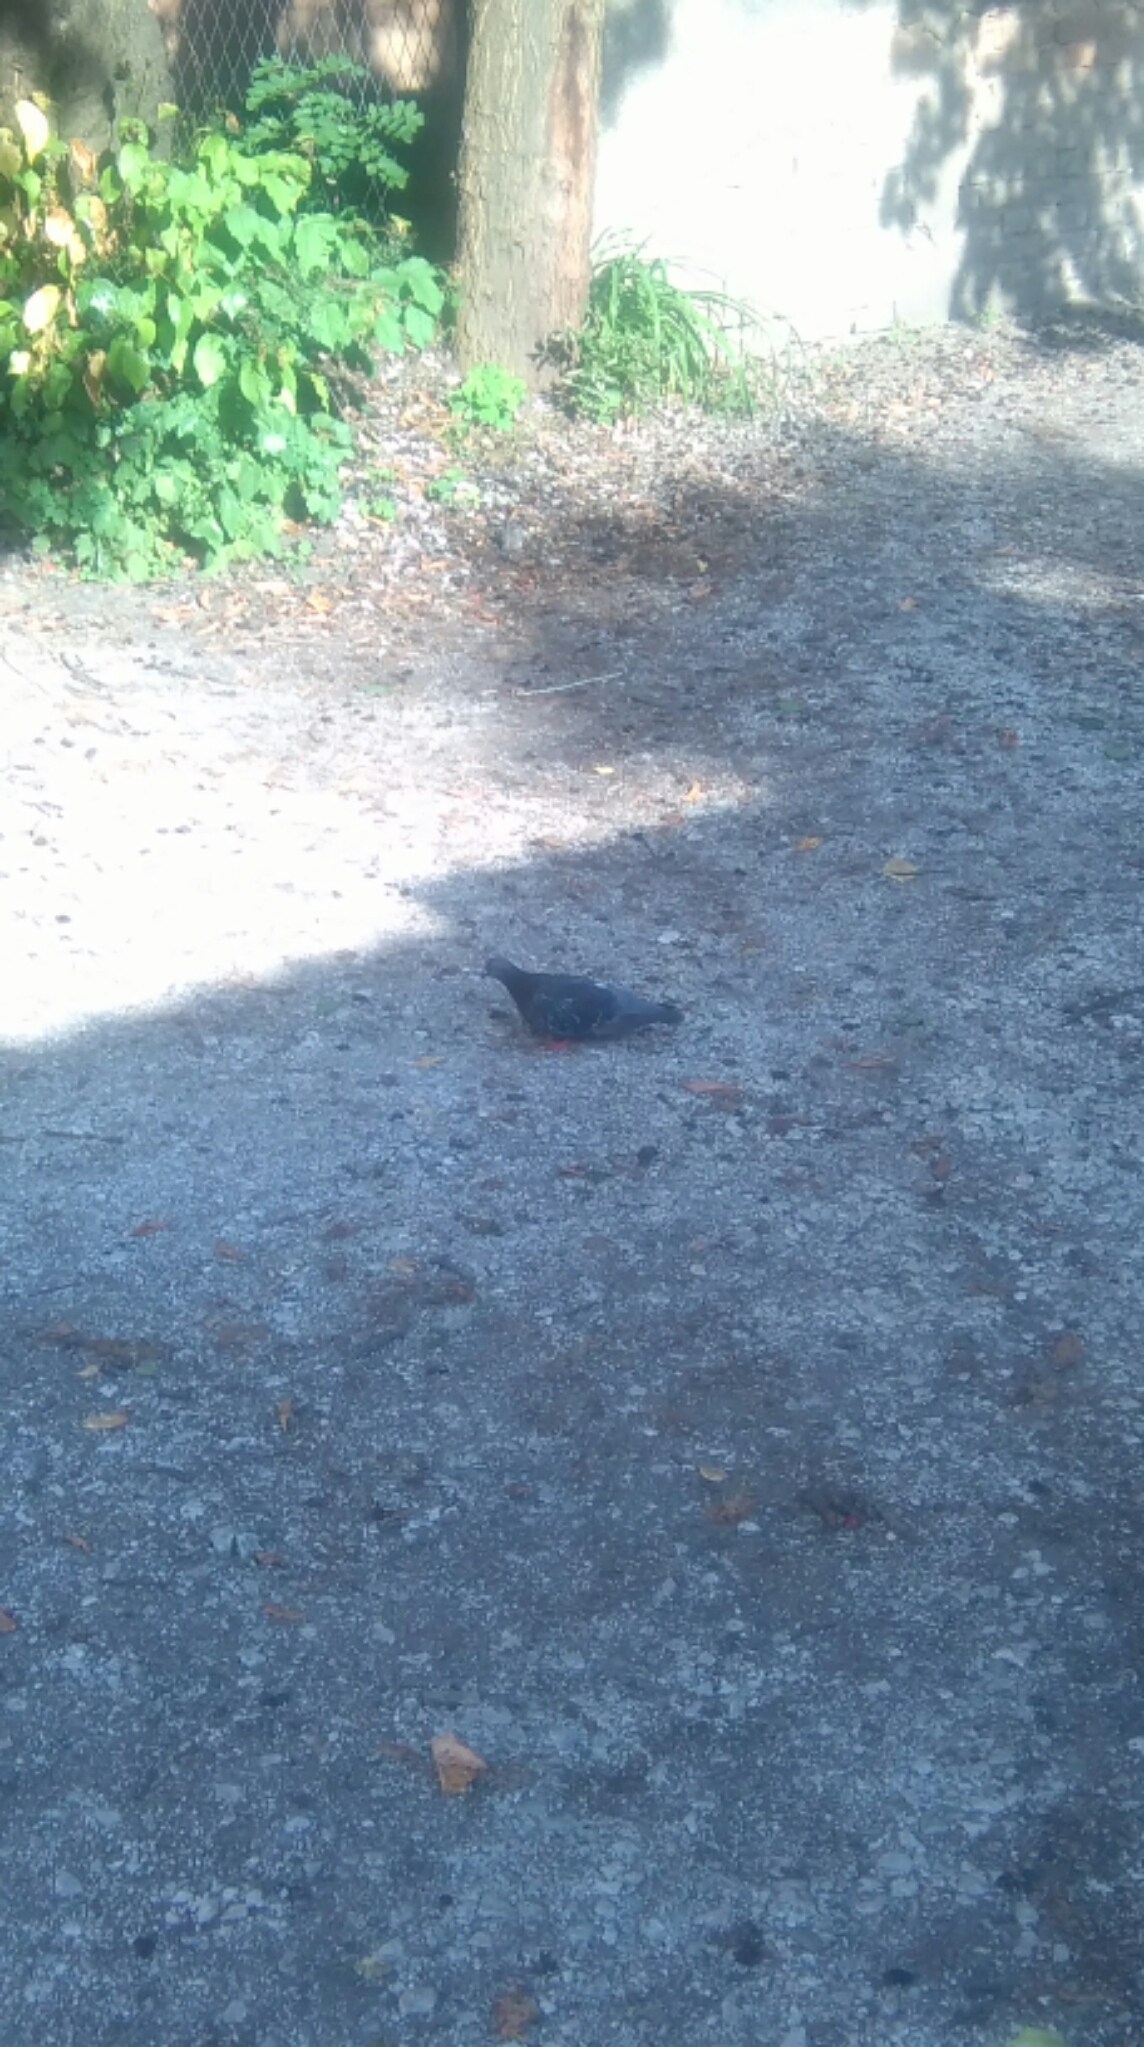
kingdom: Animalia
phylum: Chordata
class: Aves
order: Columbiformes
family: Columbidae
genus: Columba
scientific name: Columba livia
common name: Rock pigeon
